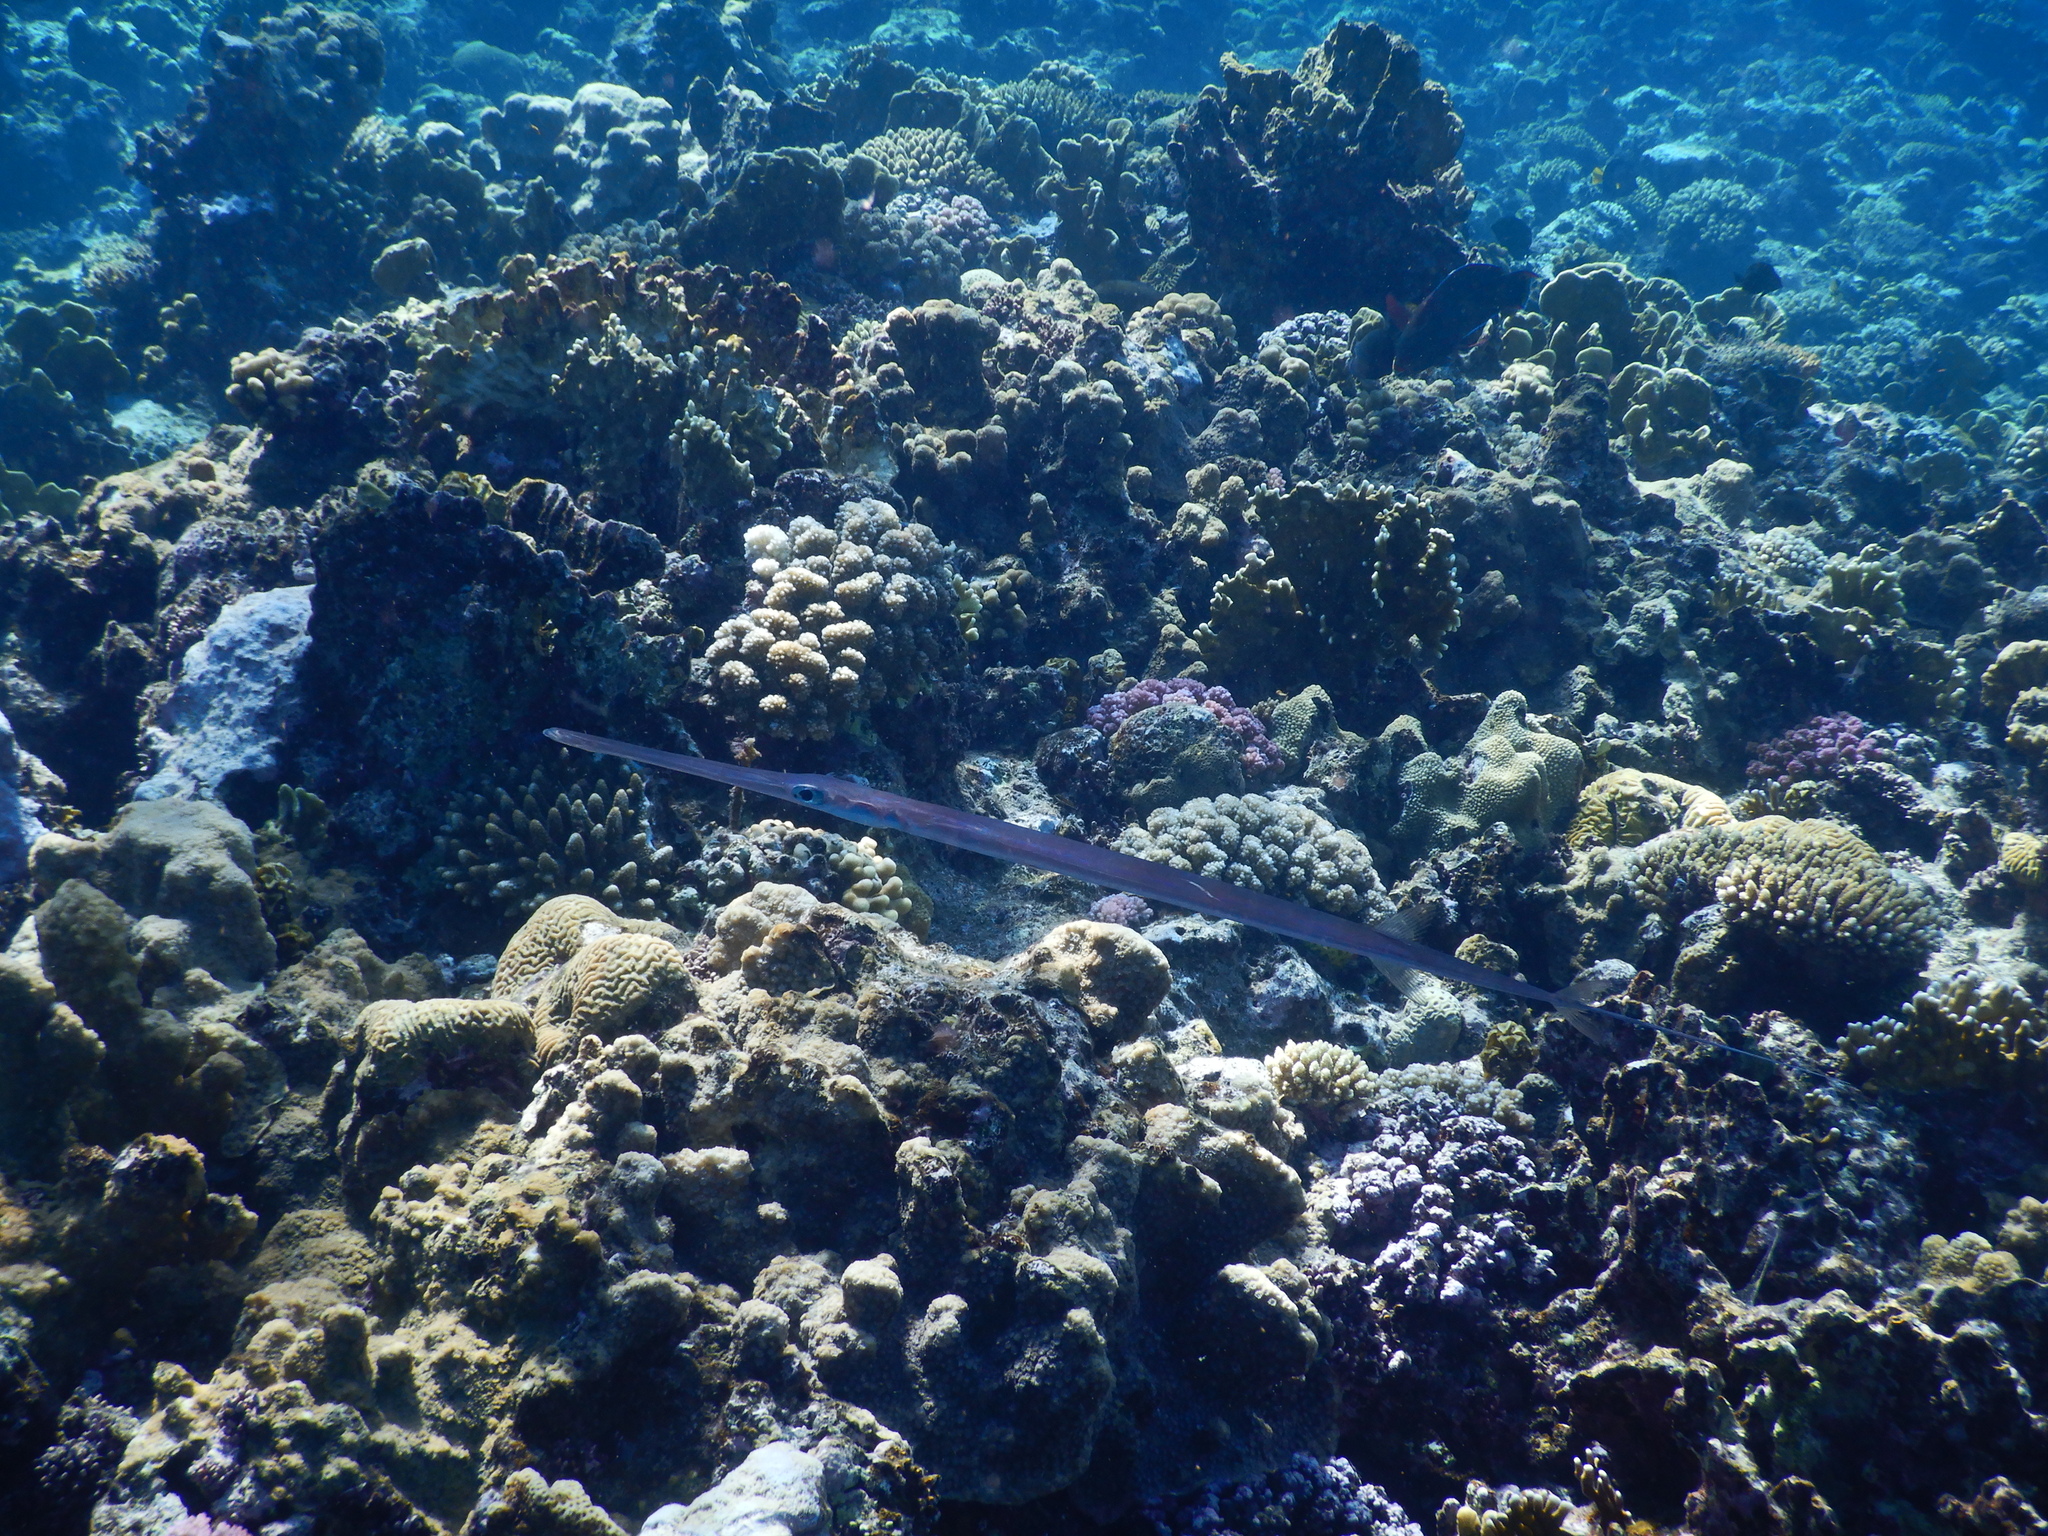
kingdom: Animalia
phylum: Chordata
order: Syngnathiformes
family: Fistulariidae
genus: Fistularia
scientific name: Fistularia commersonii
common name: Bluespotted cornetfish
